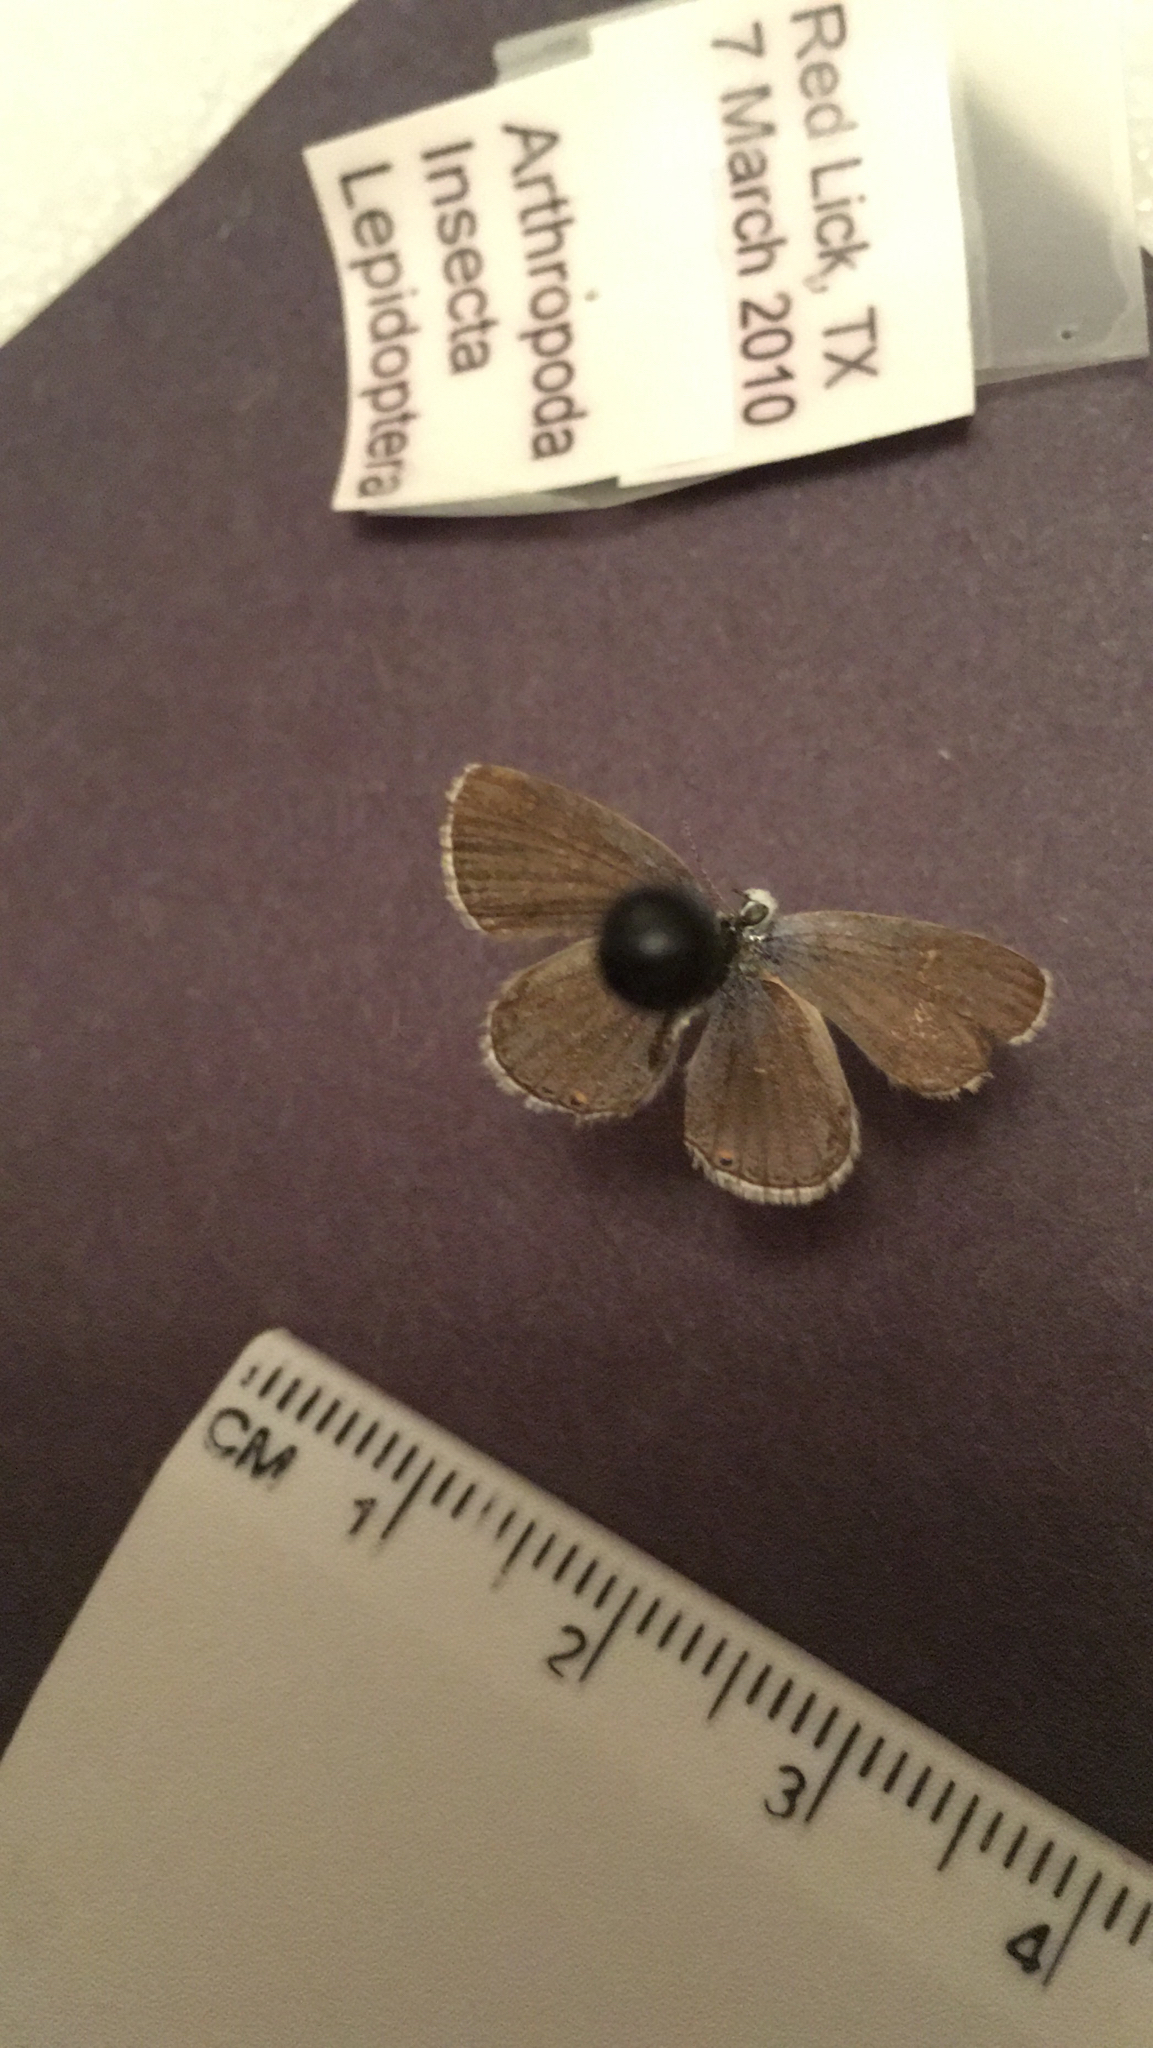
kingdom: Animalia
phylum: Arthropoda
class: Insecta
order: Lepidoptera
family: Lycaenidae
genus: Elkalyce
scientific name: Elkalyce comyntas
